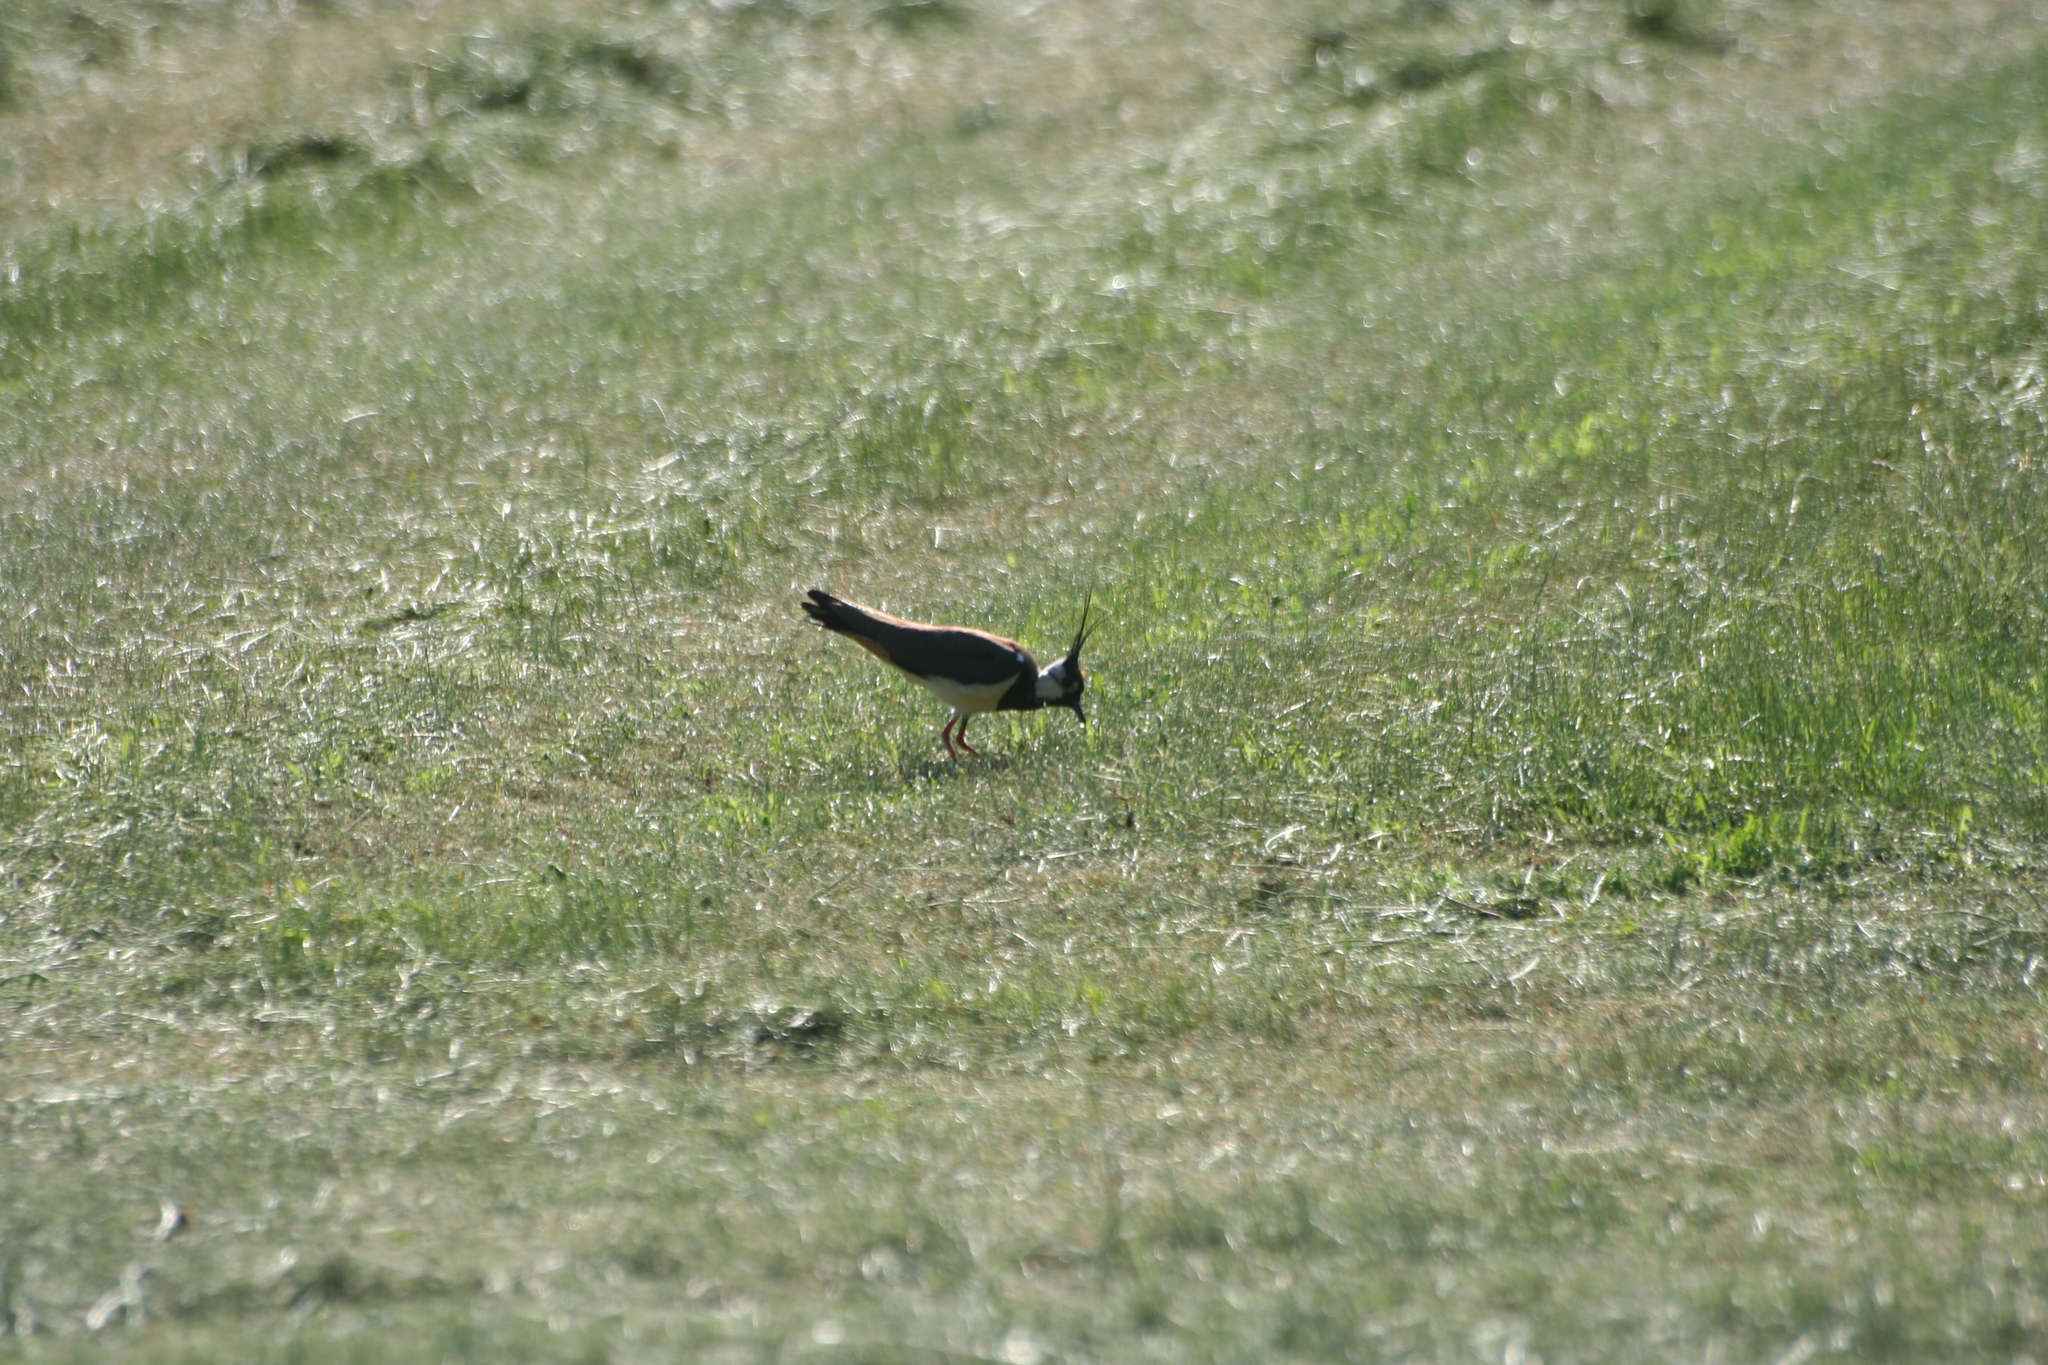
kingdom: Animalia
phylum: Chordata
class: Aves
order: Charadriiformes
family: Charadriidae
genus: Vanellus
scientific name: Vanellus vanellus
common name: Northern lapwing
